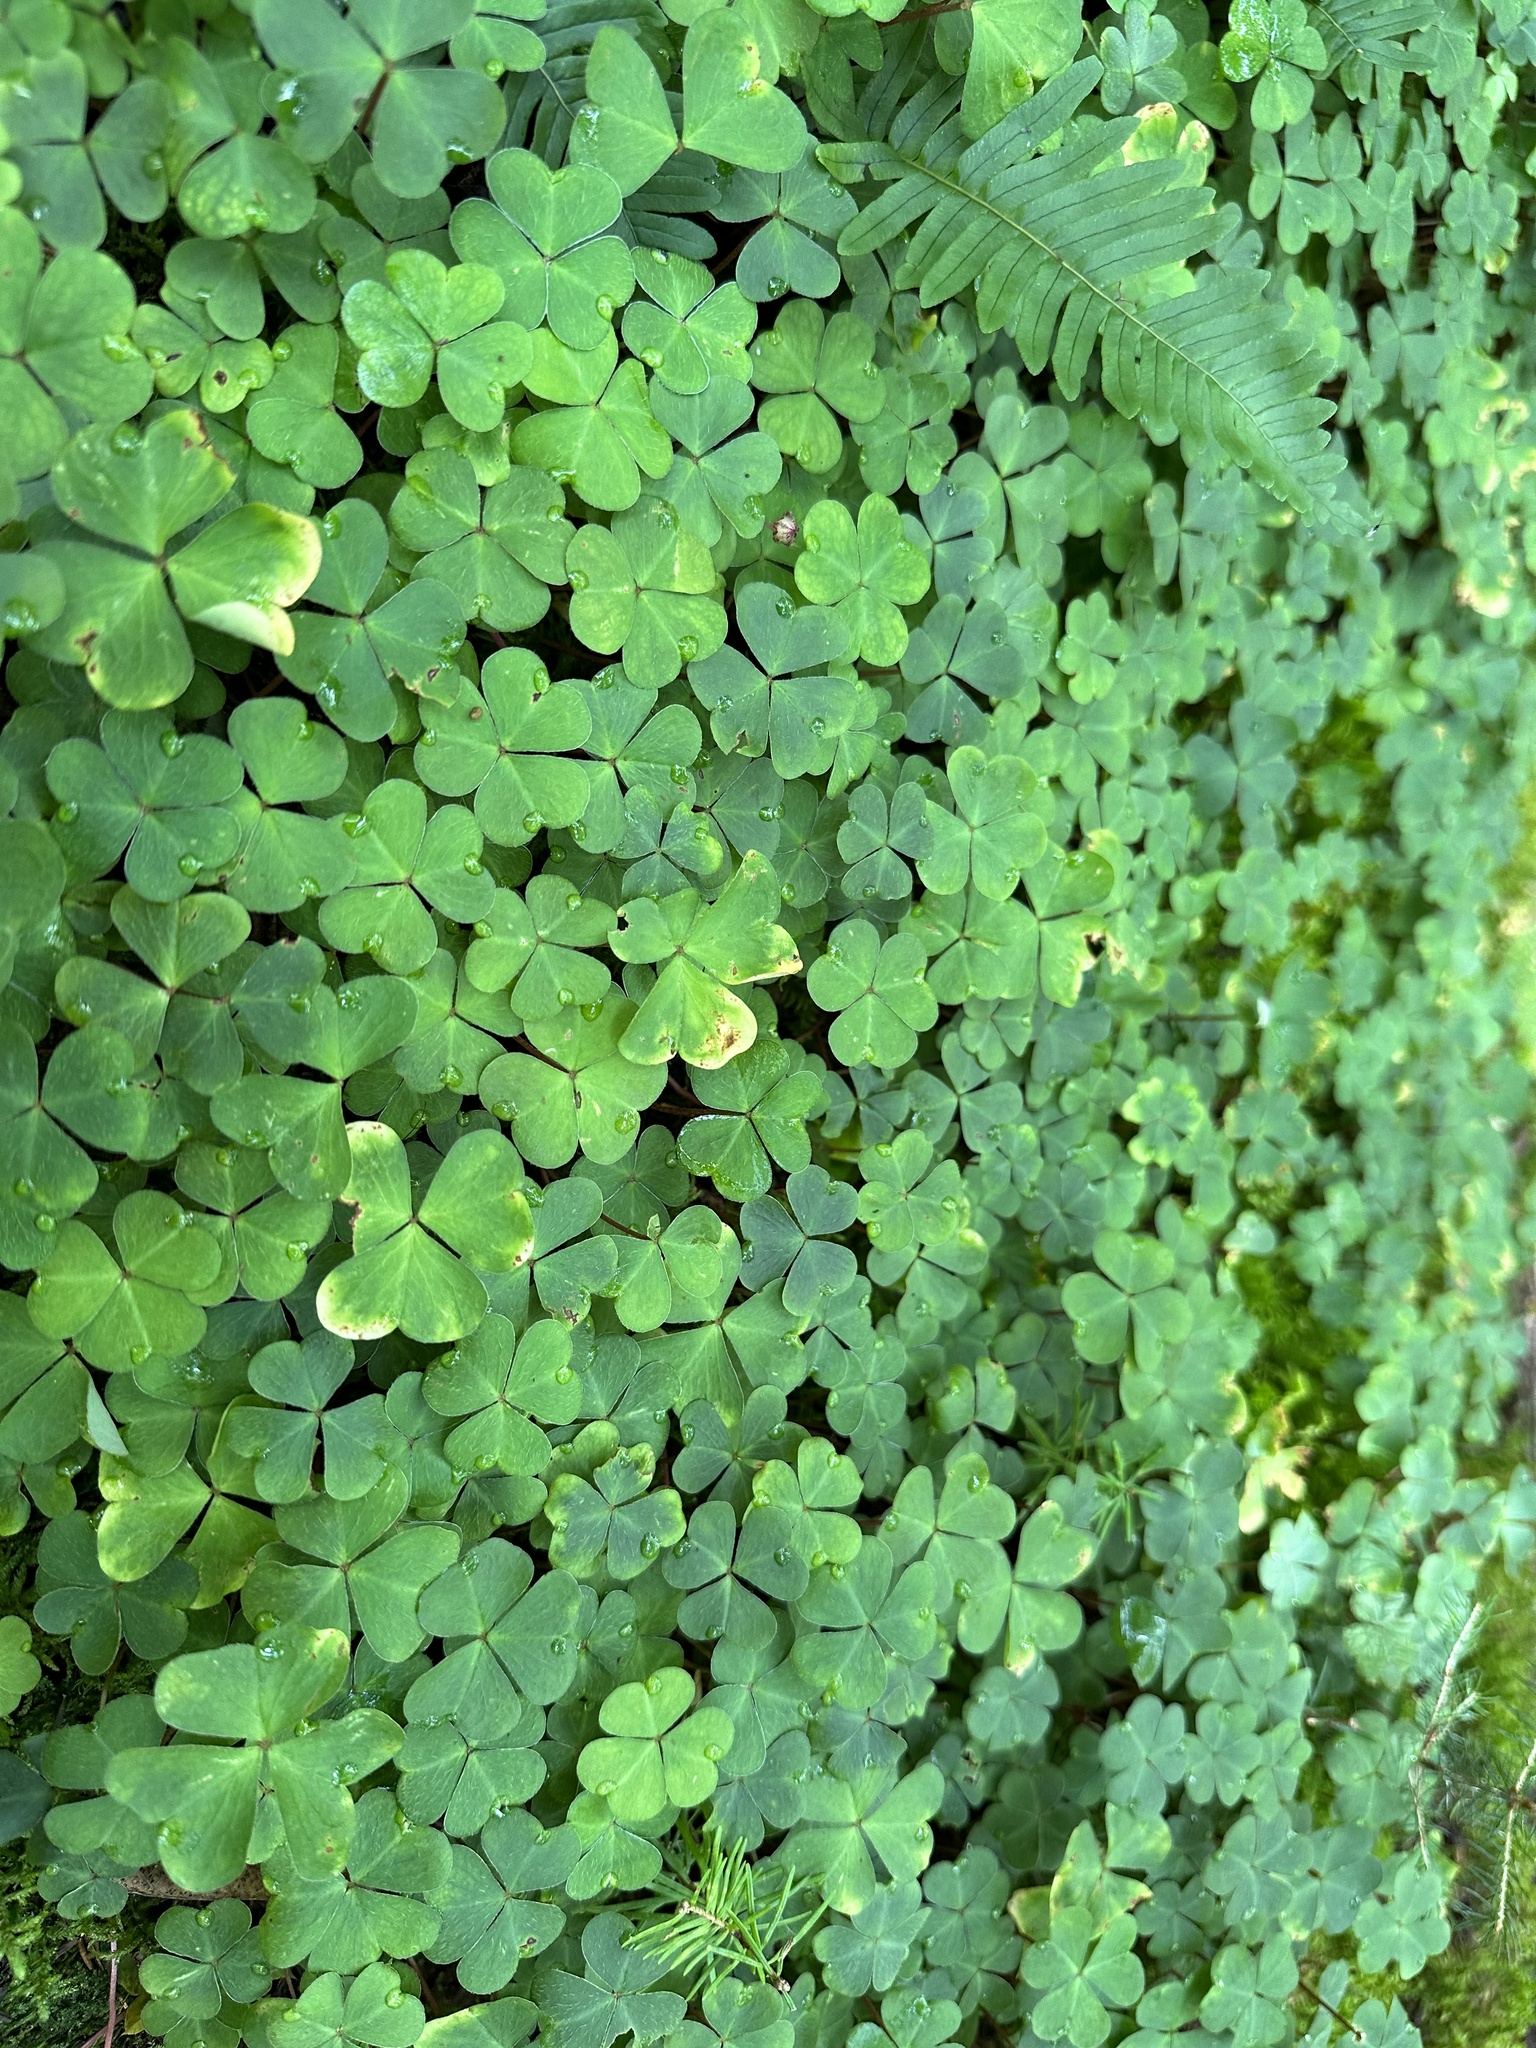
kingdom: Plantae
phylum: Tracheophyta
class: Magnoliopsida
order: Oxalidales
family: Oxalidaceae
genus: Oxalis
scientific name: Oxalis montana
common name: American wood-sorrel
